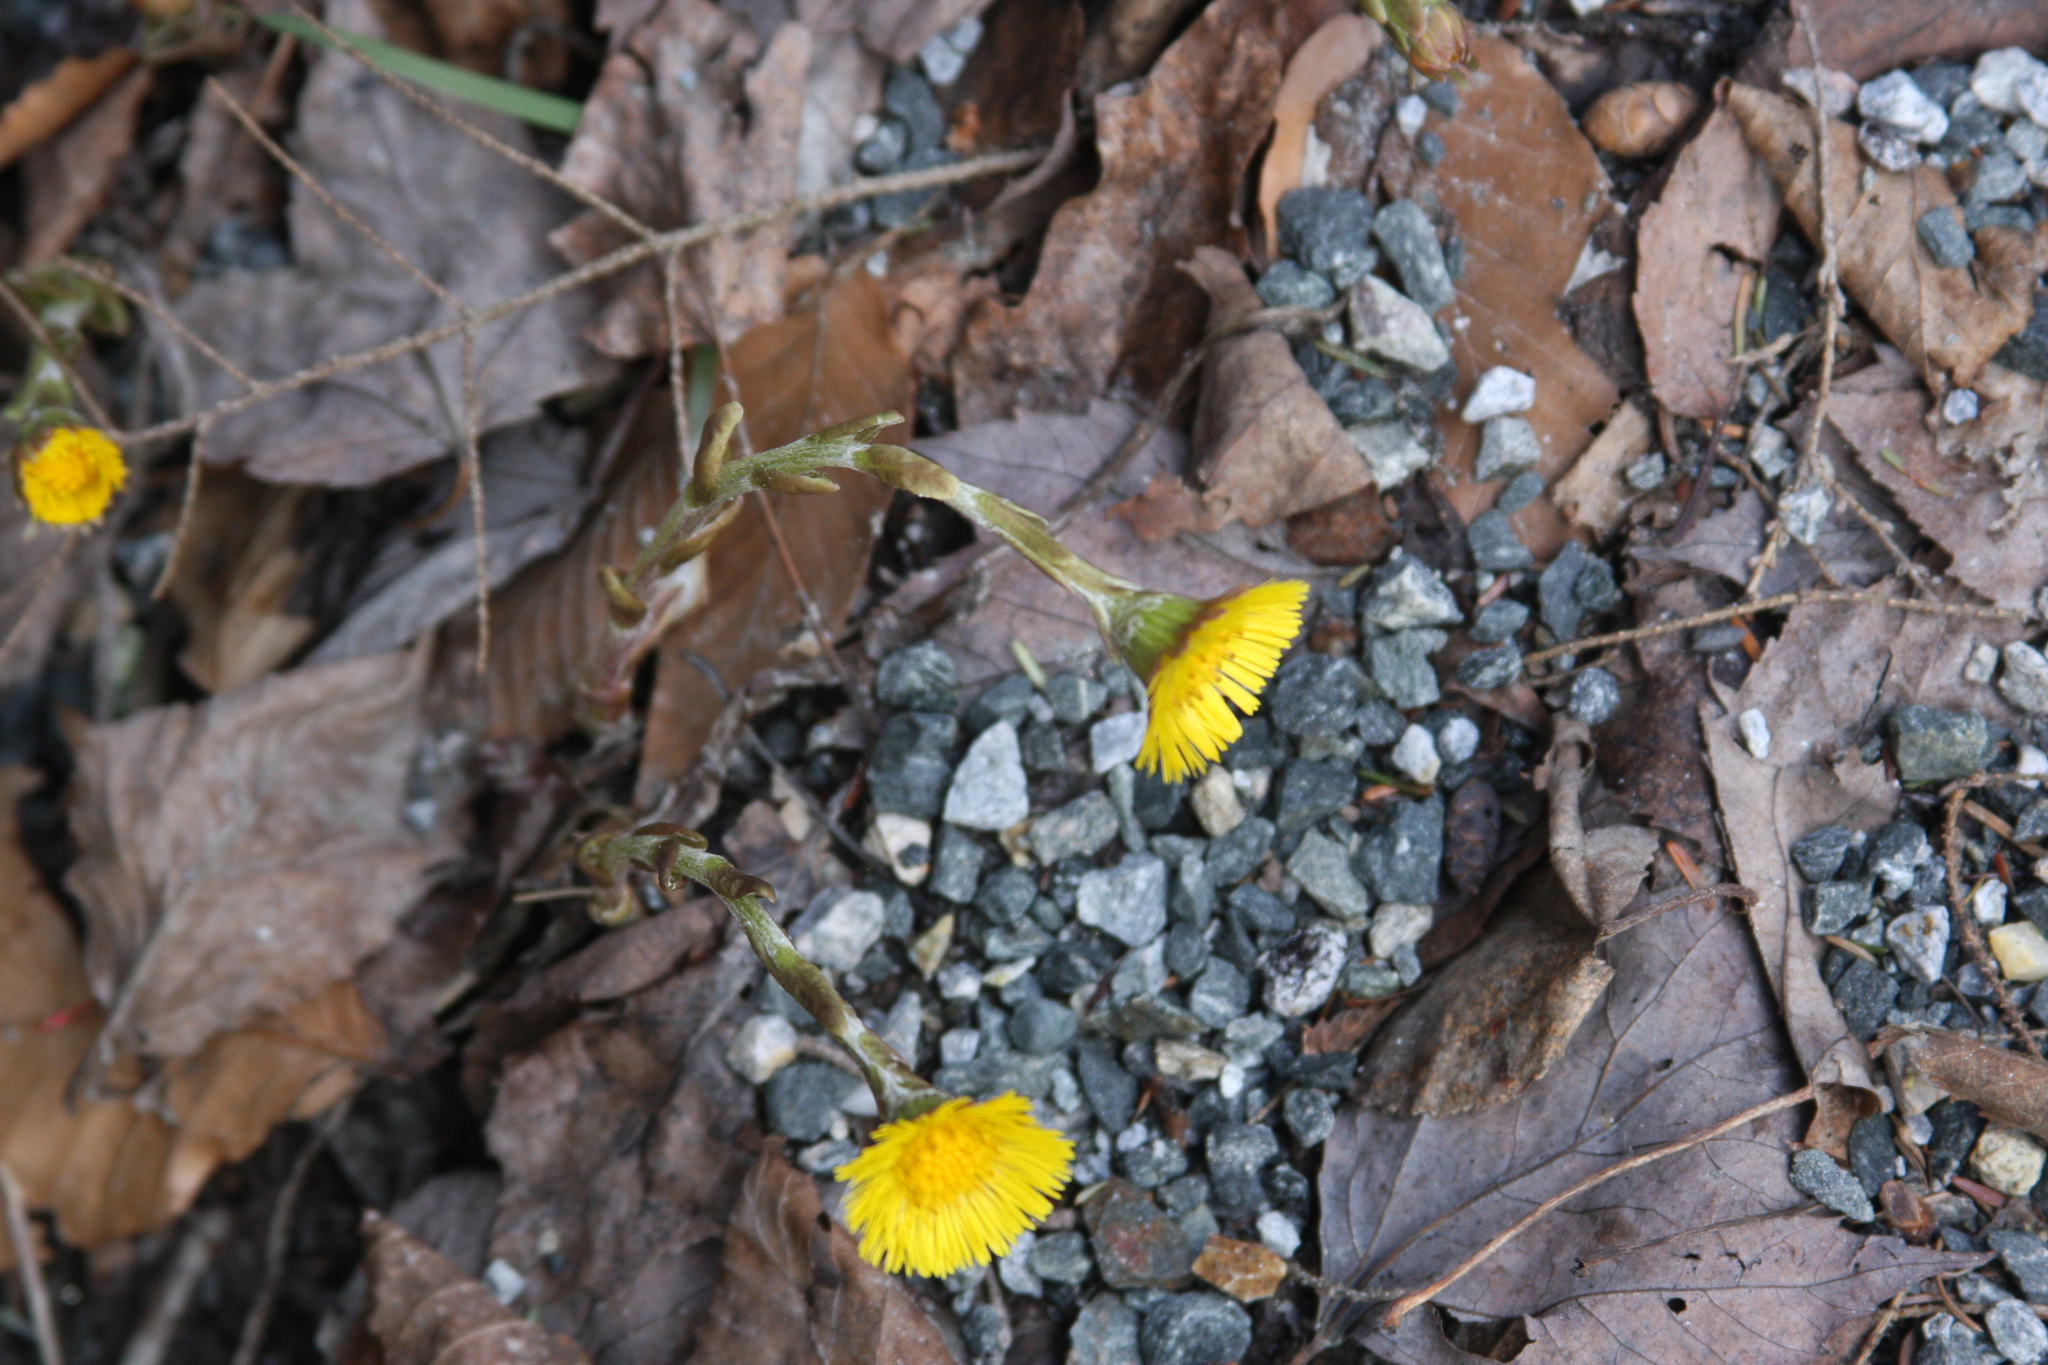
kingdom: Plantae
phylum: Tracheophyta
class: Magnoliopsida
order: Asterales
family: Asteraceae
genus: Tussilago
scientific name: Tussilago farfara
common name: Coltsfoot
